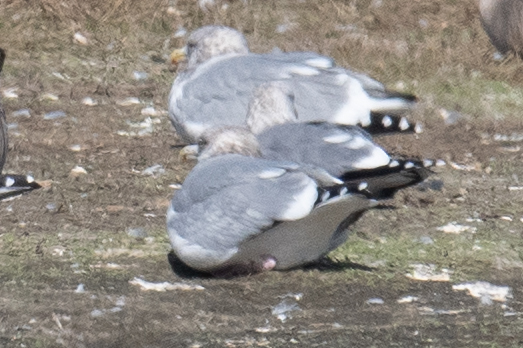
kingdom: Animalia
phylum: Chordata
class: Aves
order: Charadriiformes
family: Laridae
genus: Larus
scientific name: Larus argentatus
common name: Herring gull
